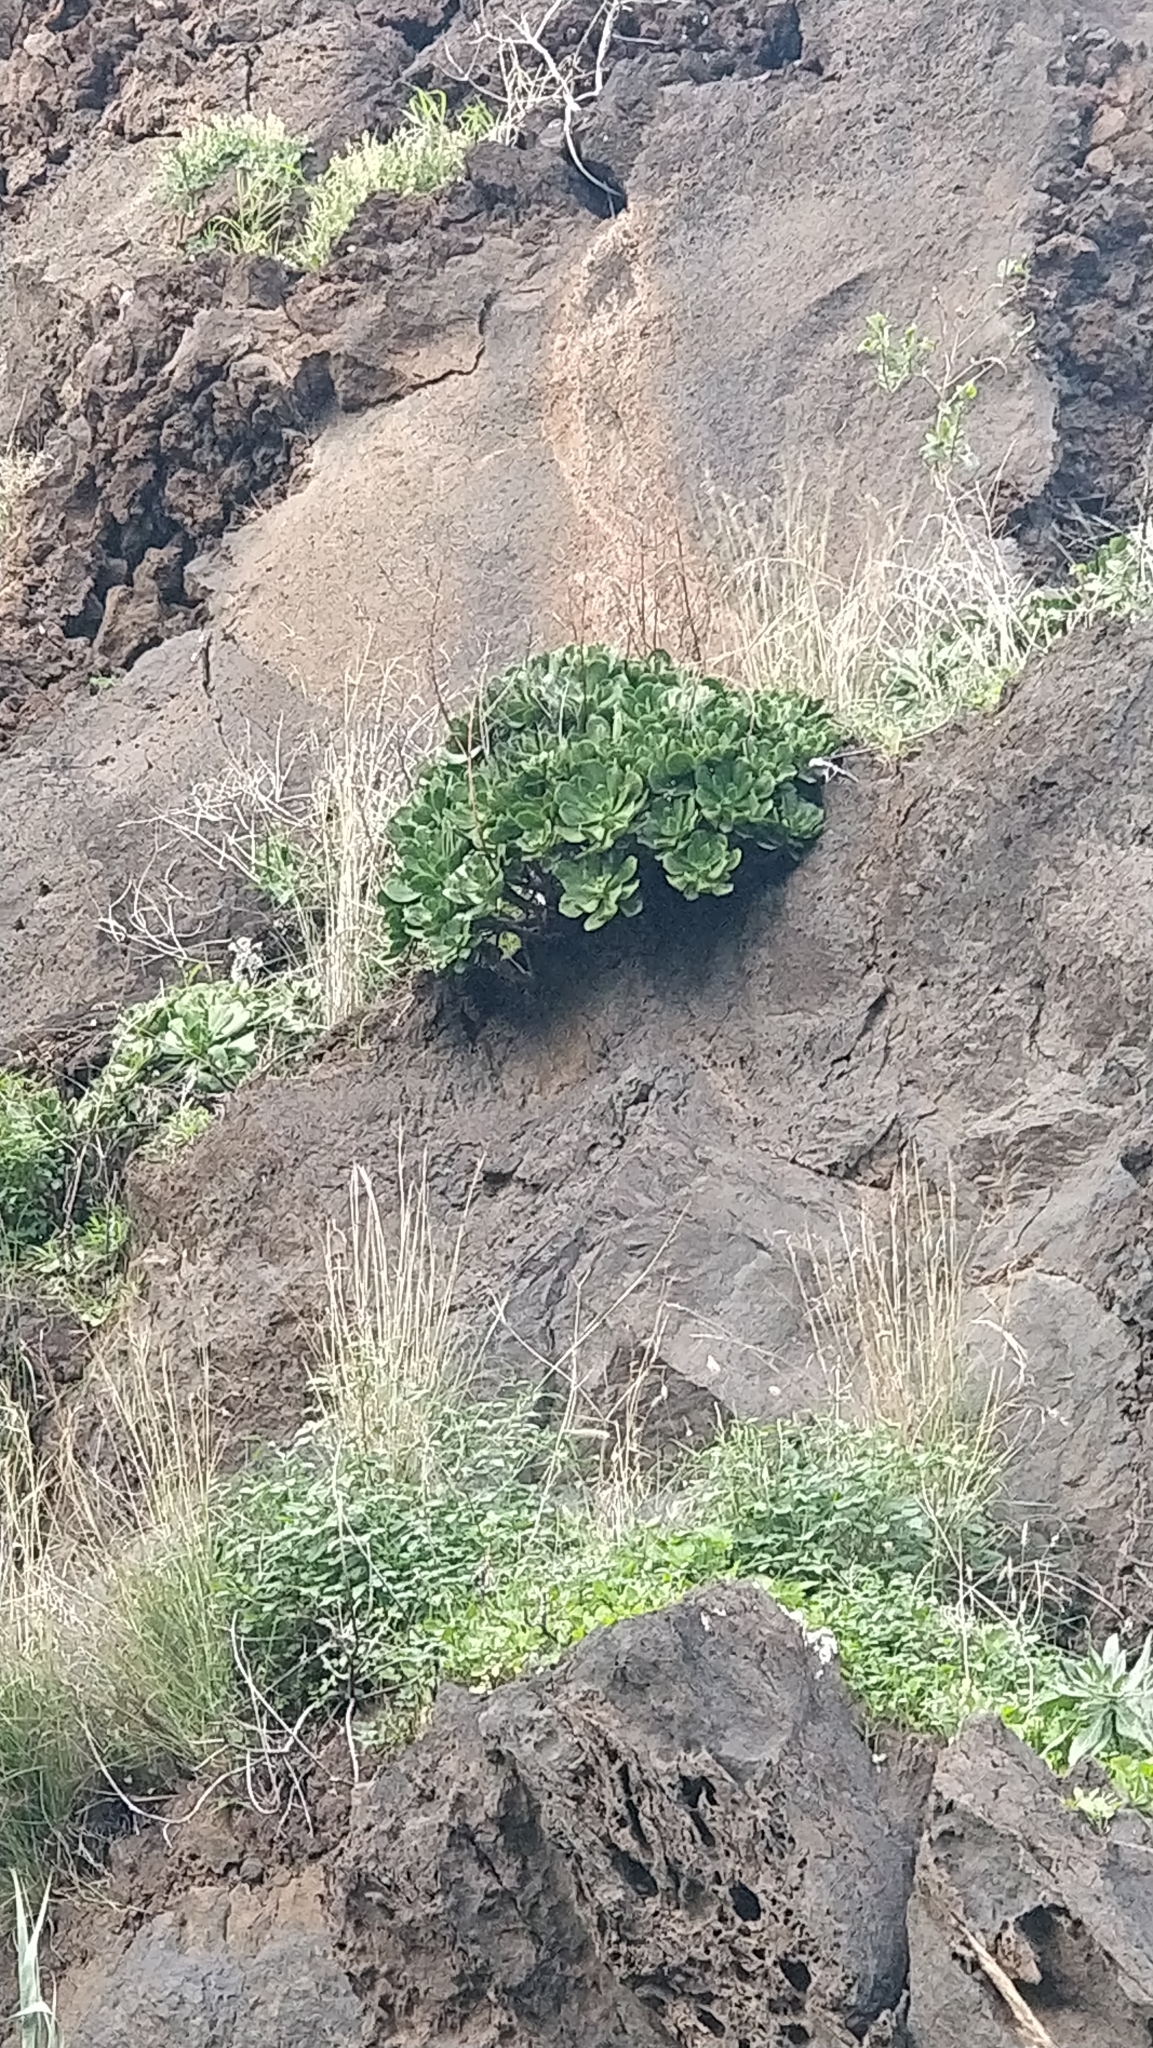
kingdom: Plantae
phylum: Tracheophyta
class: Magnoliopsida
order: Saxifragales
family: Crassulaceae
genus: Aeonium
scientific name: Aeonium glutinosum
